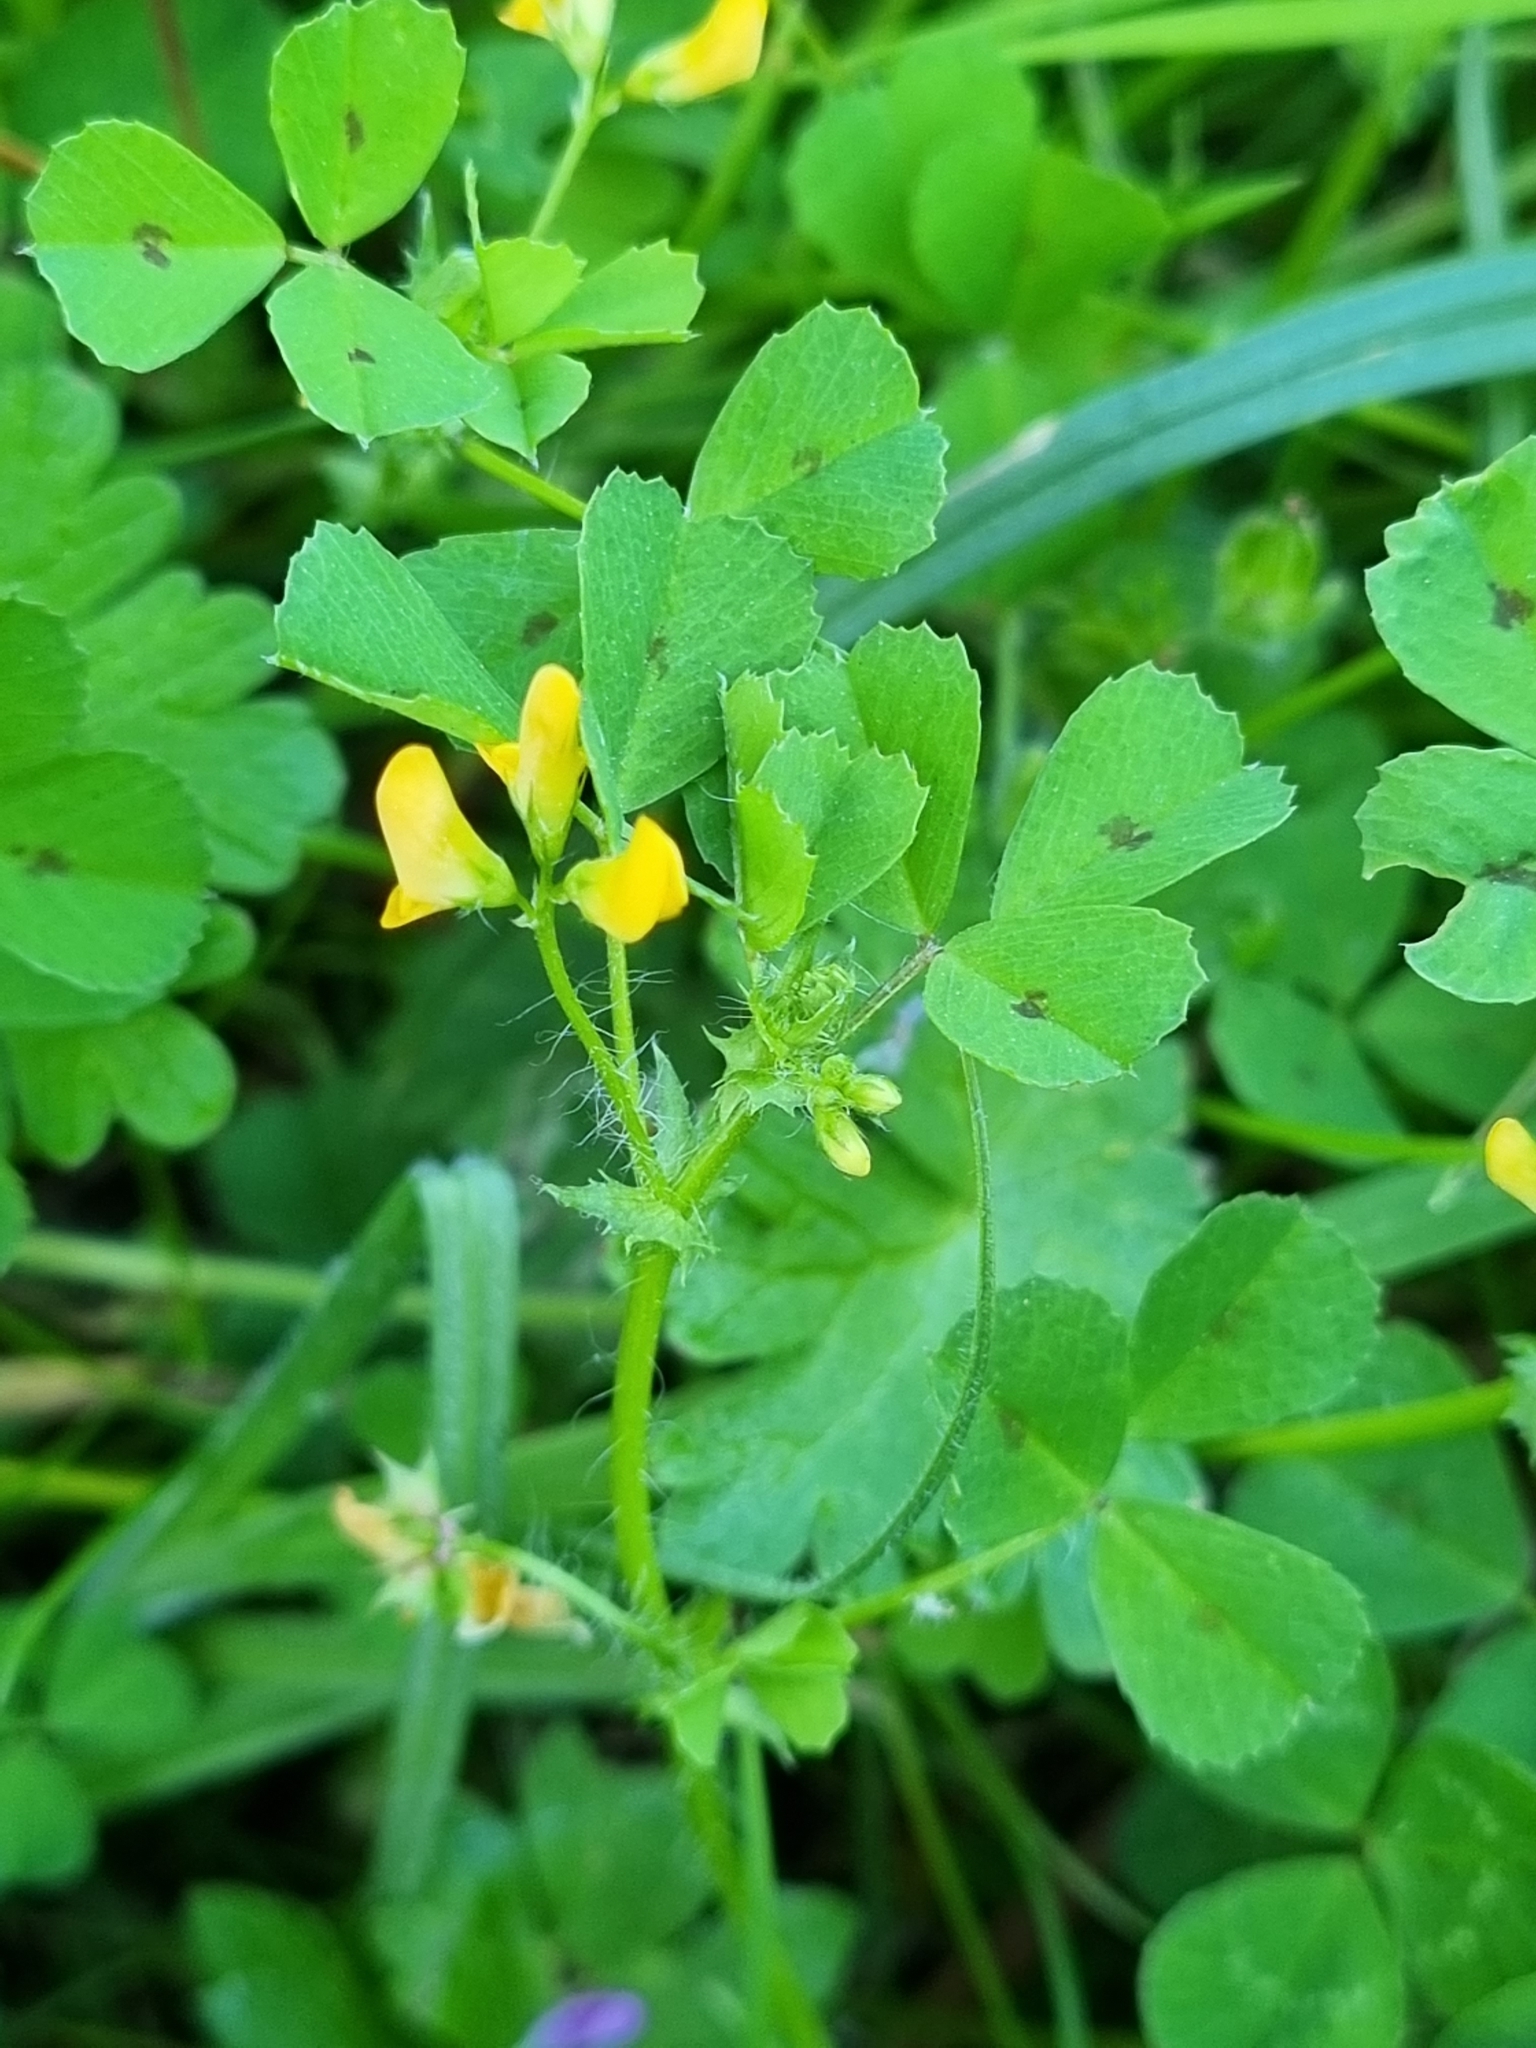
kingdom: Plantae
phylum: Tracheophyta
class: Magnoliopsida
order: Fabales
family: Fabaceae
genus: Medicago
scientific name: Medicago arabica
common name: Spotted medick
